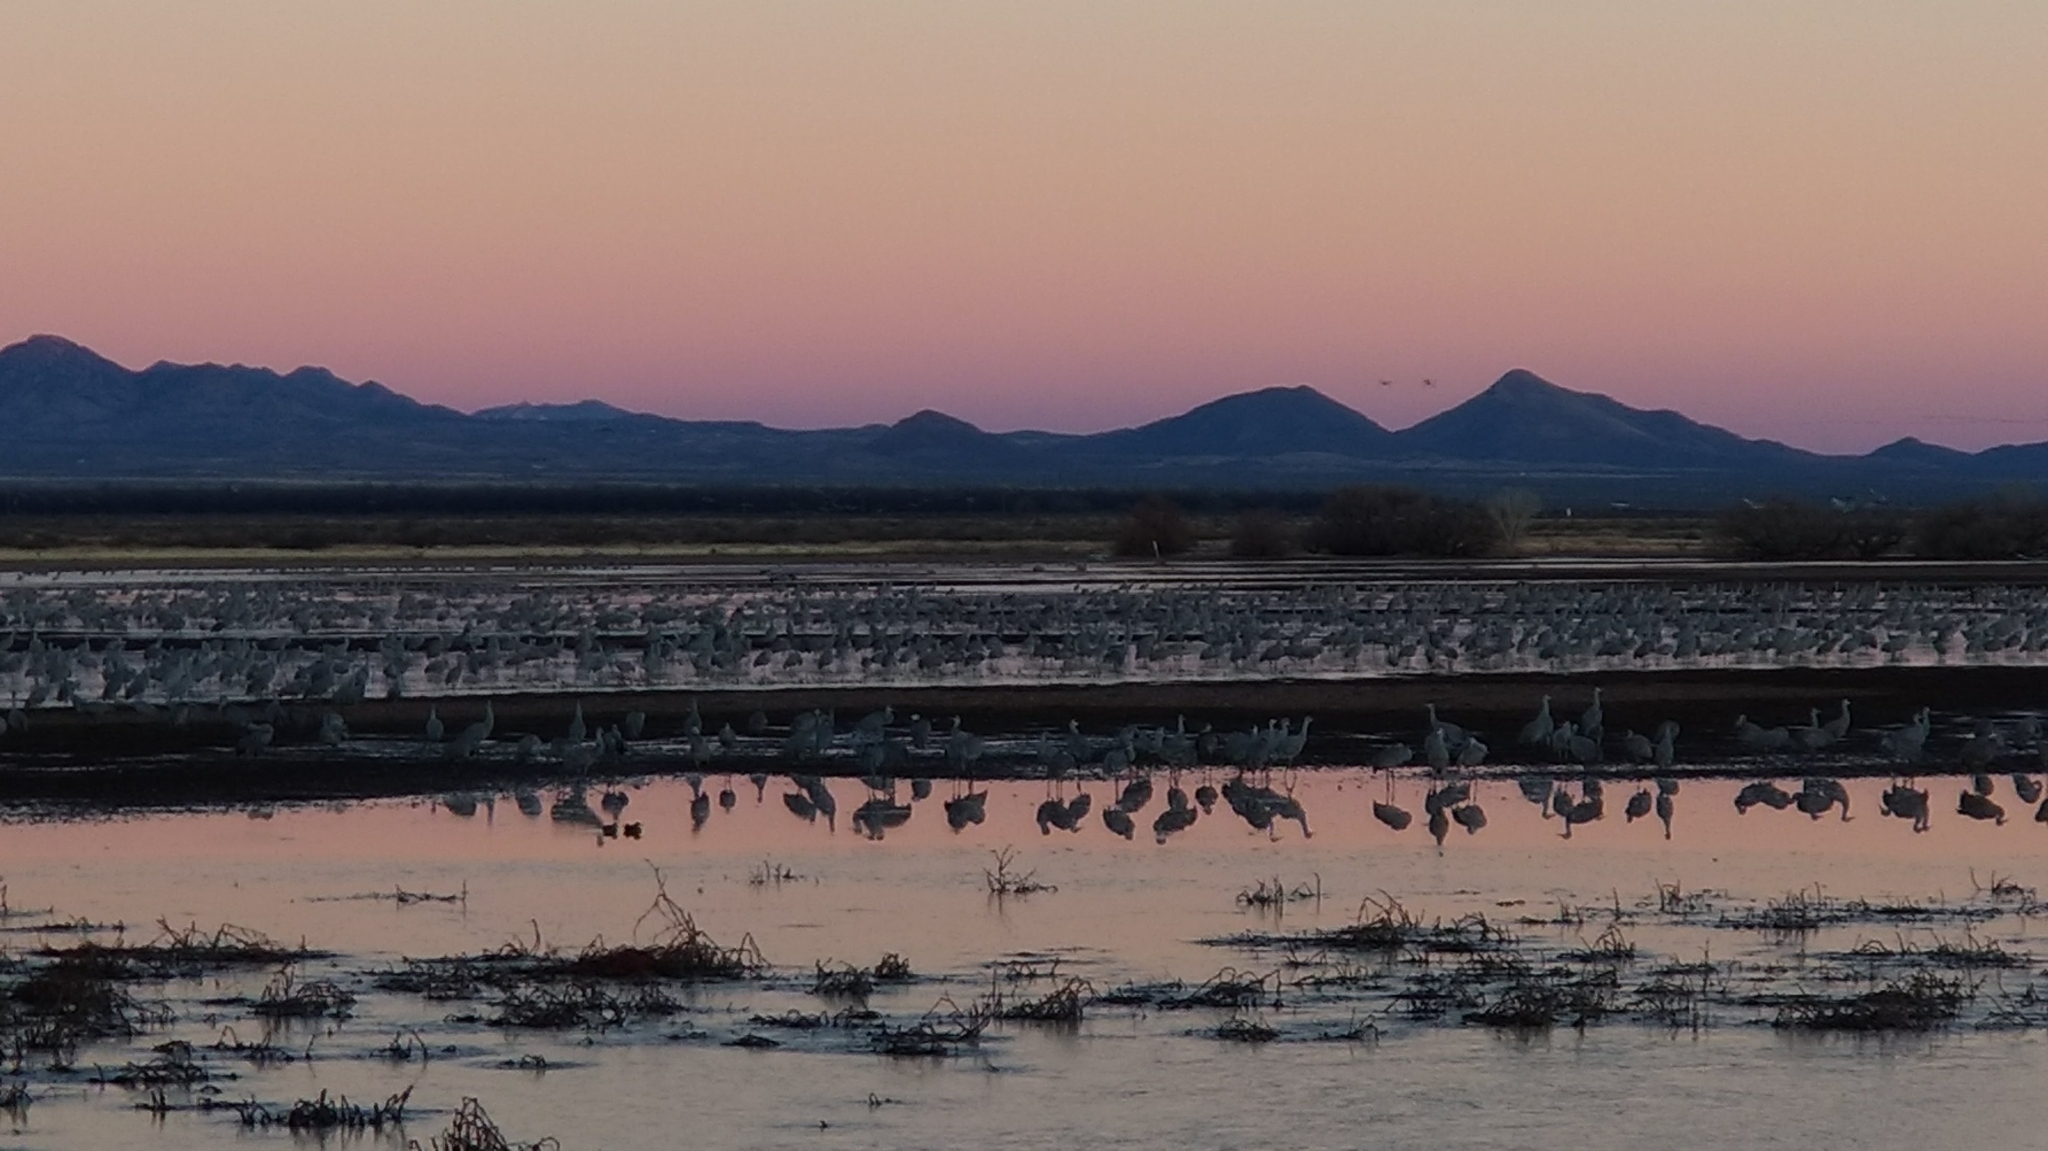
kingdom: Animalia
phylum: Chordata
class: Aves
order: Gruiformes
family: Gruidae
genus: Grus
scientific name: Grus canadensis
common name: Sandhill crane
